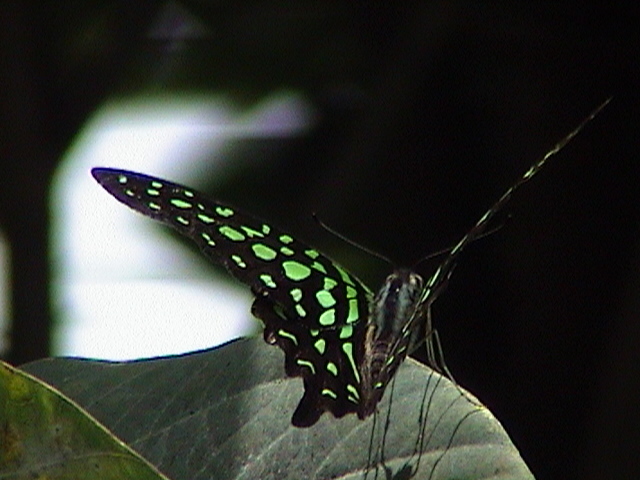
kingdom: Animalia
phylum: Arthropoda
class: Insecta
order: Lepidoptera
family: Papilionidae
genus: Graphium
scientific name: Graphium agamemnon
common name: Tailed jay
